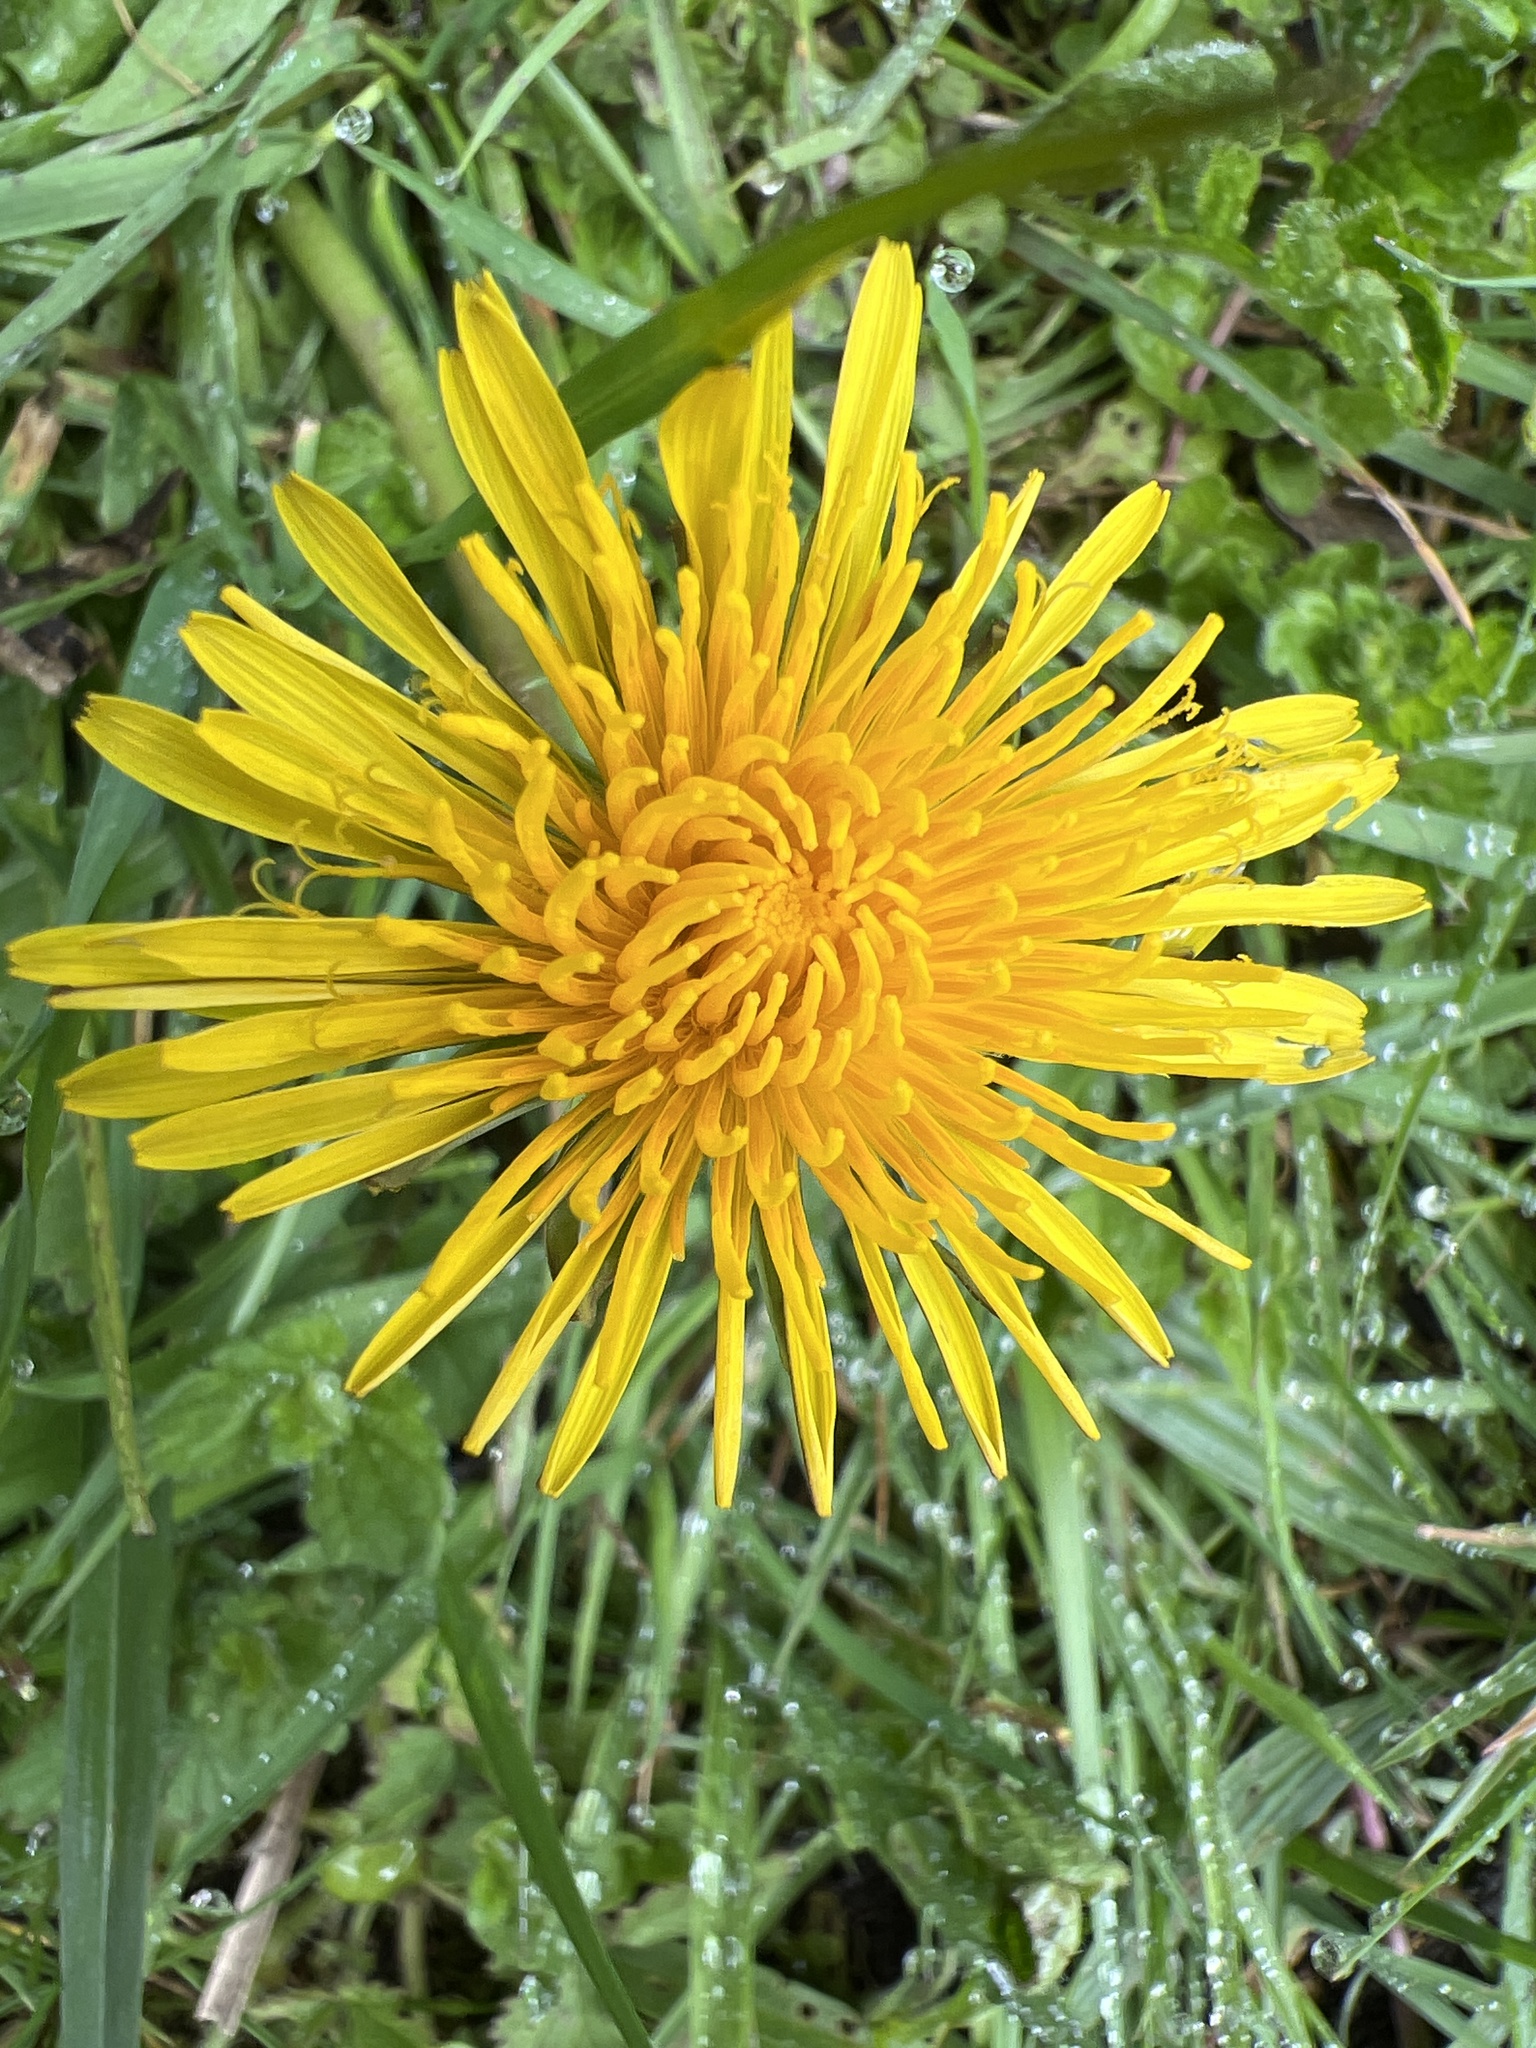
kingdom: Plantae
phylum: Tracheophyta
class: Magnoliopsida
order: Asterales
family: Asteraceae
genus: Taraxacum
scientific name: Taraxacum officinale
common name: Common dandelion
